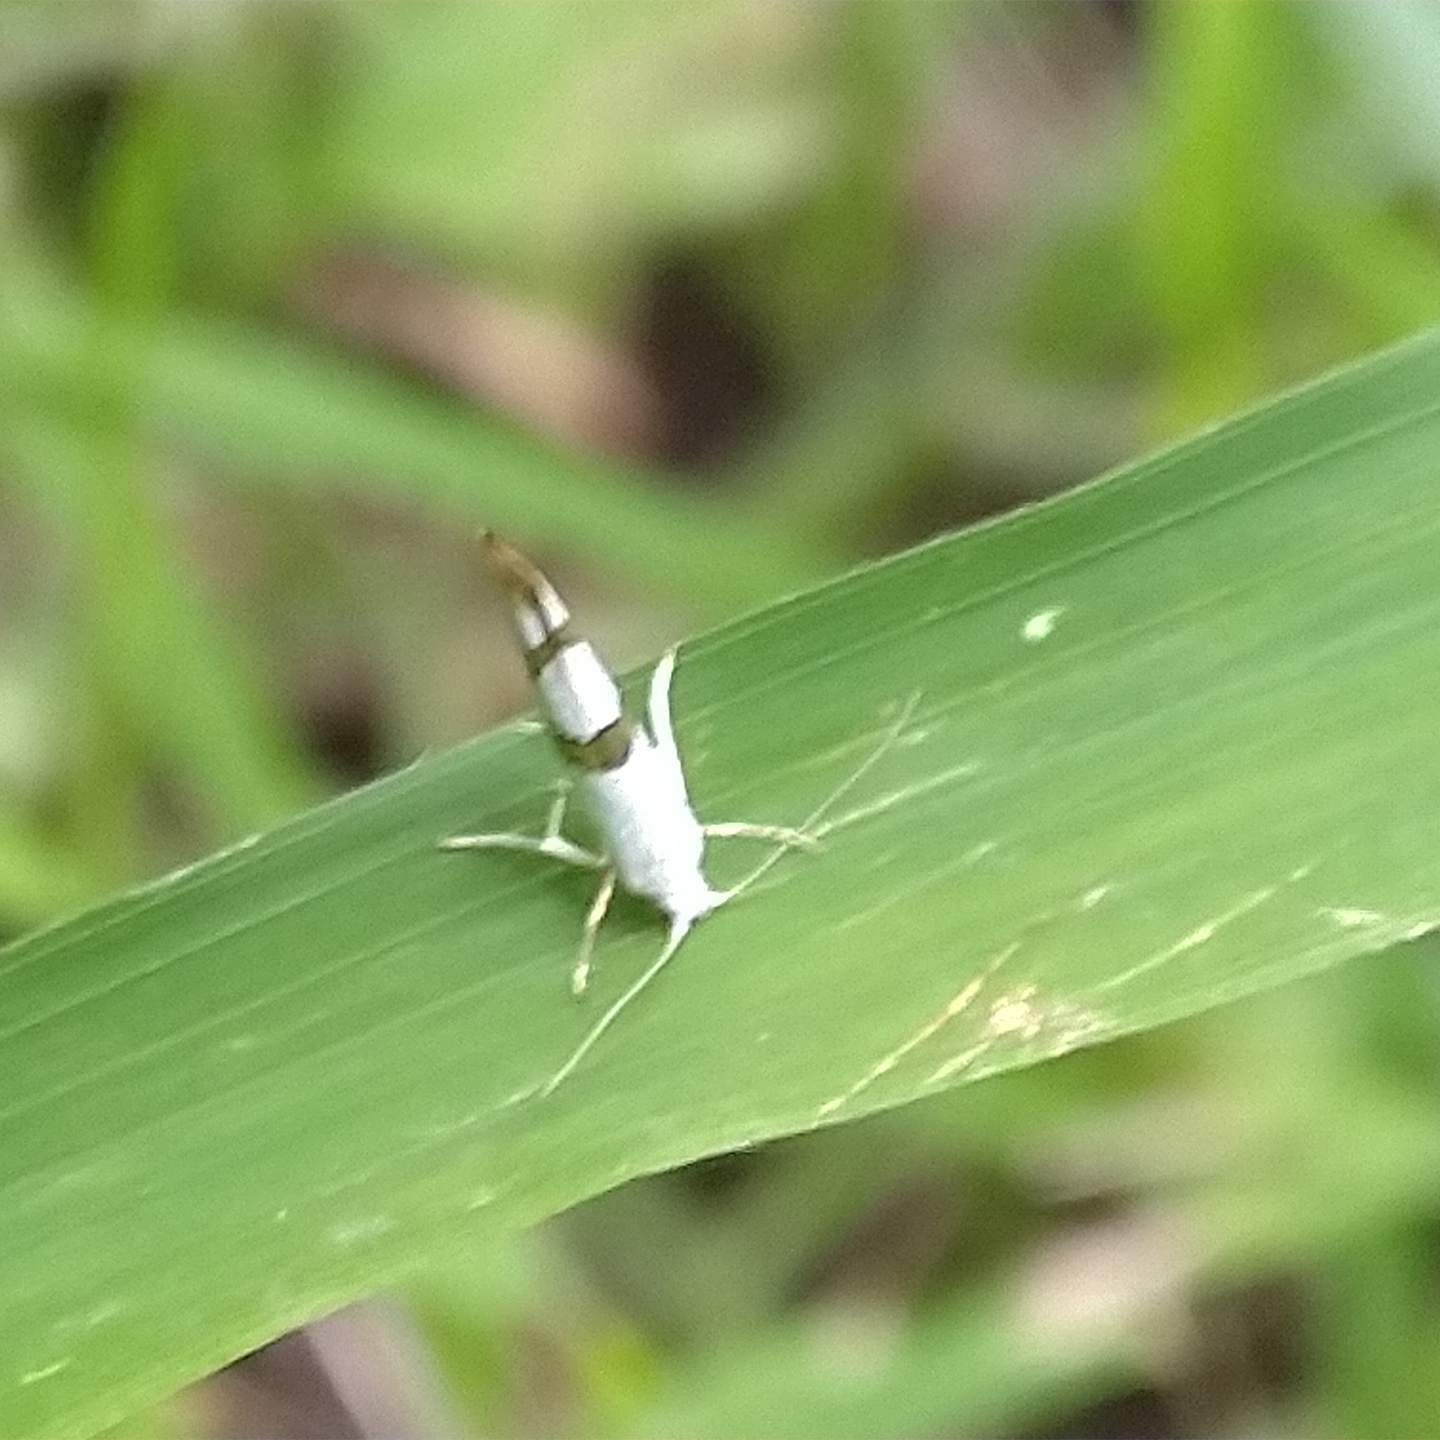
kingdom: Animalia
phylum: Arthropoda
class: Insecta
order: Lepidoptera
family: Argyresthiidae
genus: Argyresthia
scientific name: Argyresthia oreasella
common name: Cherry shoot borer moth
